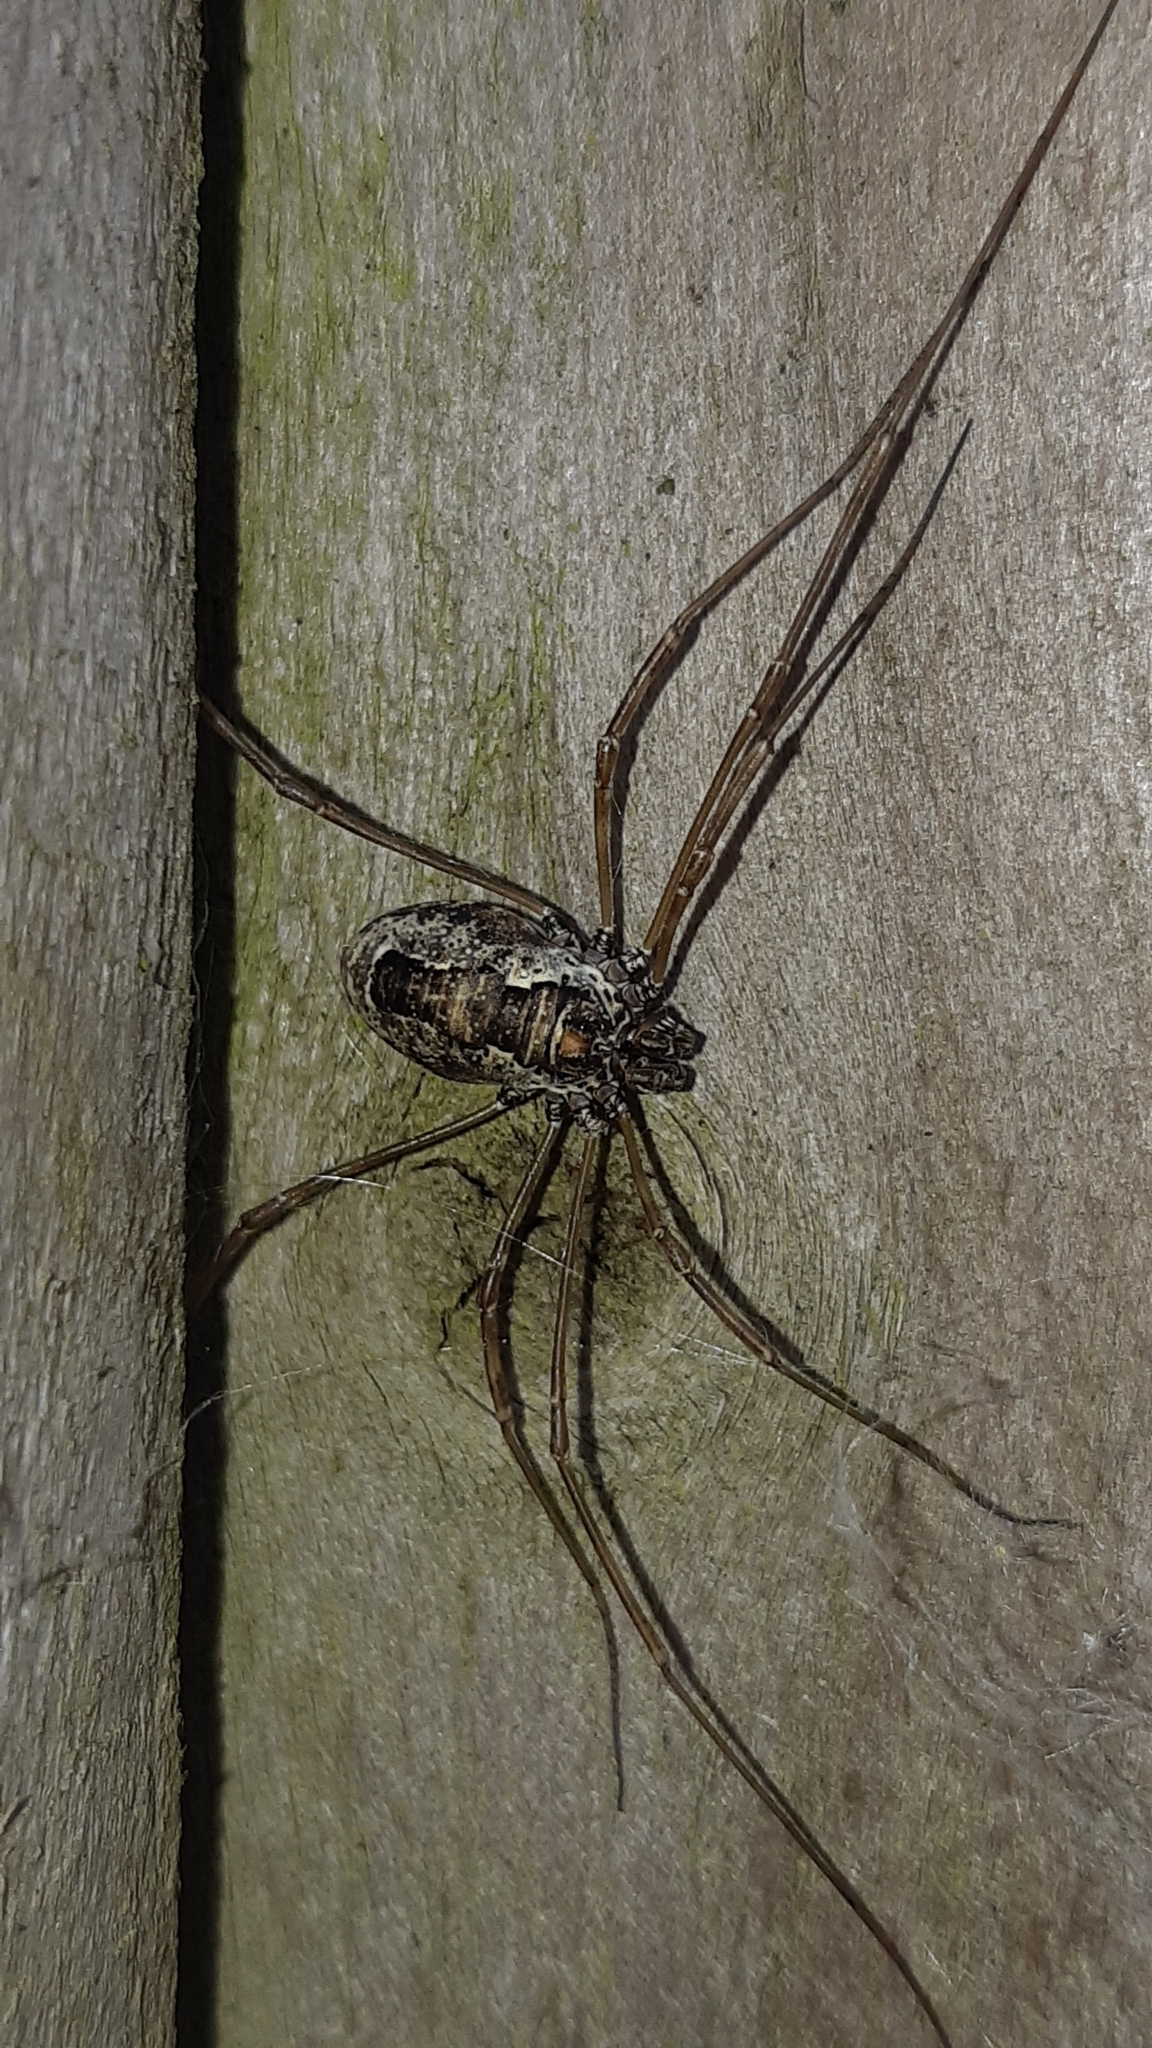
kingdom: Animalia
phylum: Arthropoda
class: Arachnida
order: Opiliones
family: Phalangiidae
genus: Platybunus
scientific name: Platybunus pinetorum
